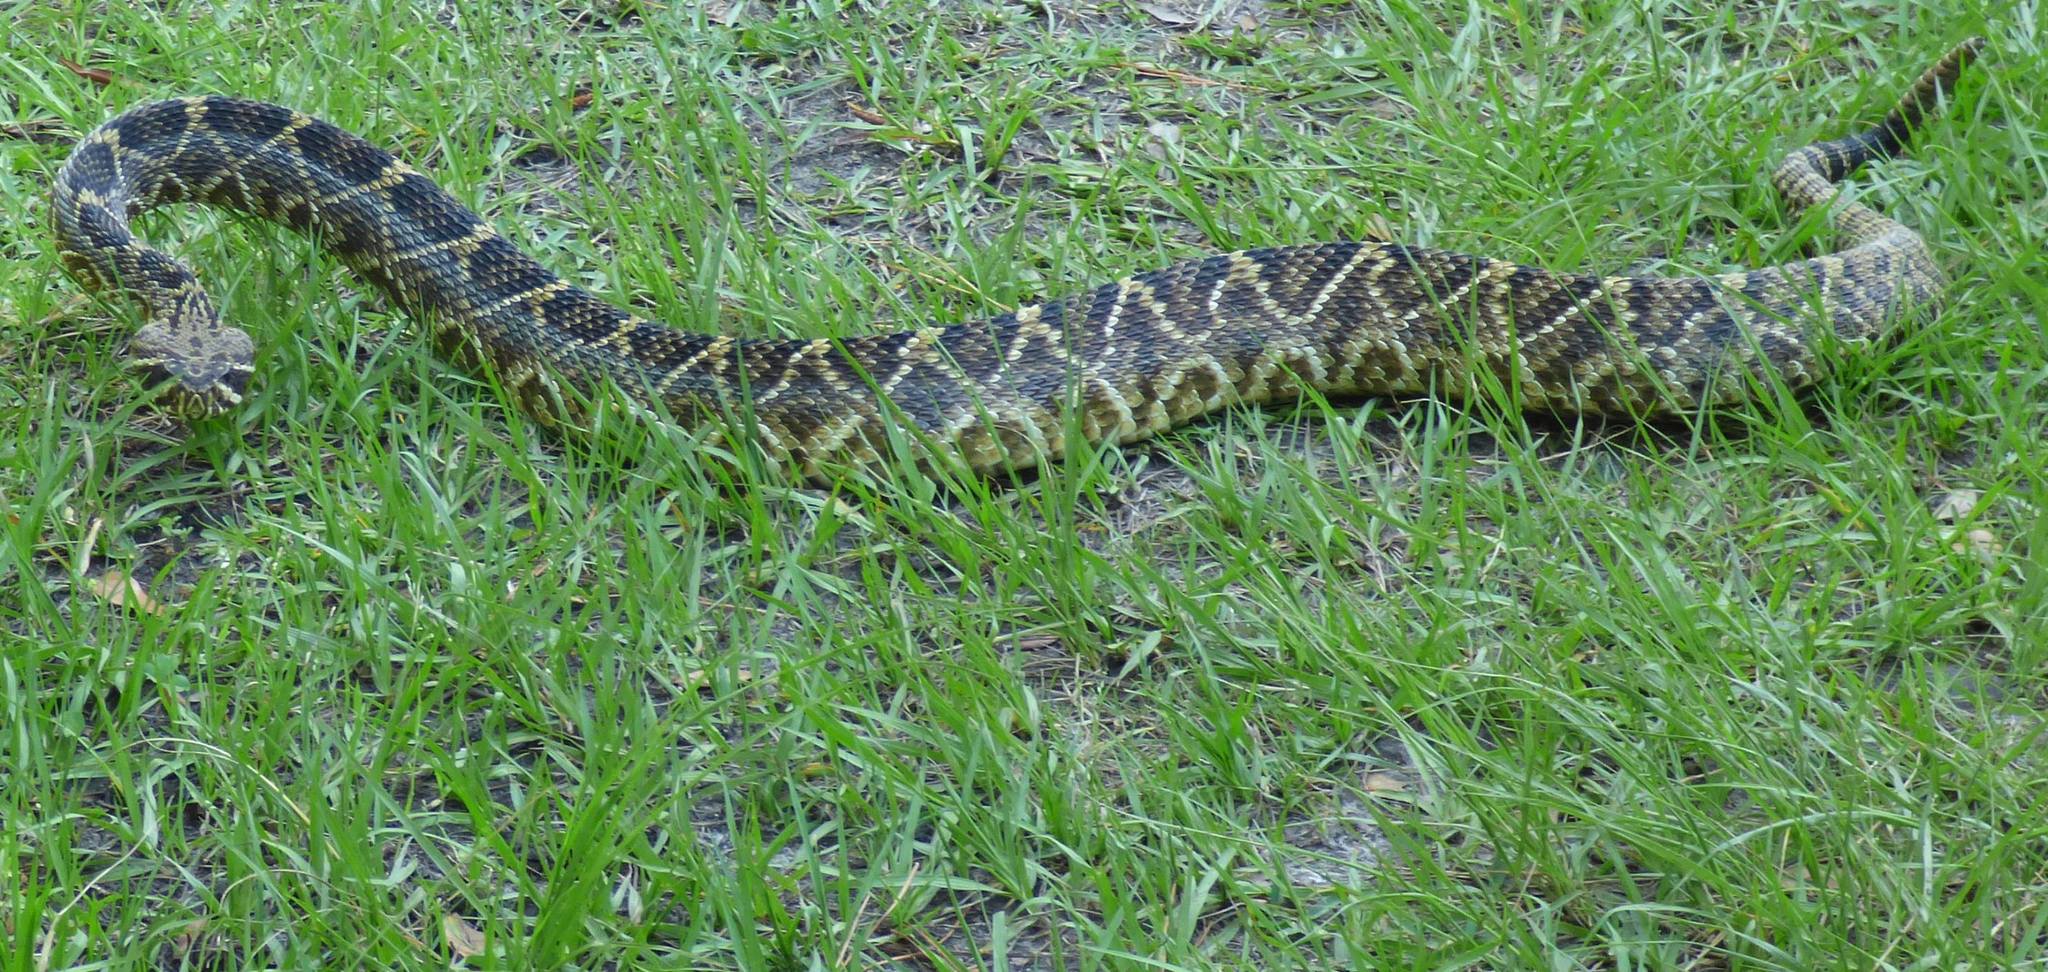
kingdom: Animalia
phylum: Chordata
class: Squamata
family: Viperidae
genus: Crotalus
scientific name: Crotalus adamanteus
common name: Eastern diamondback rattlesnake
